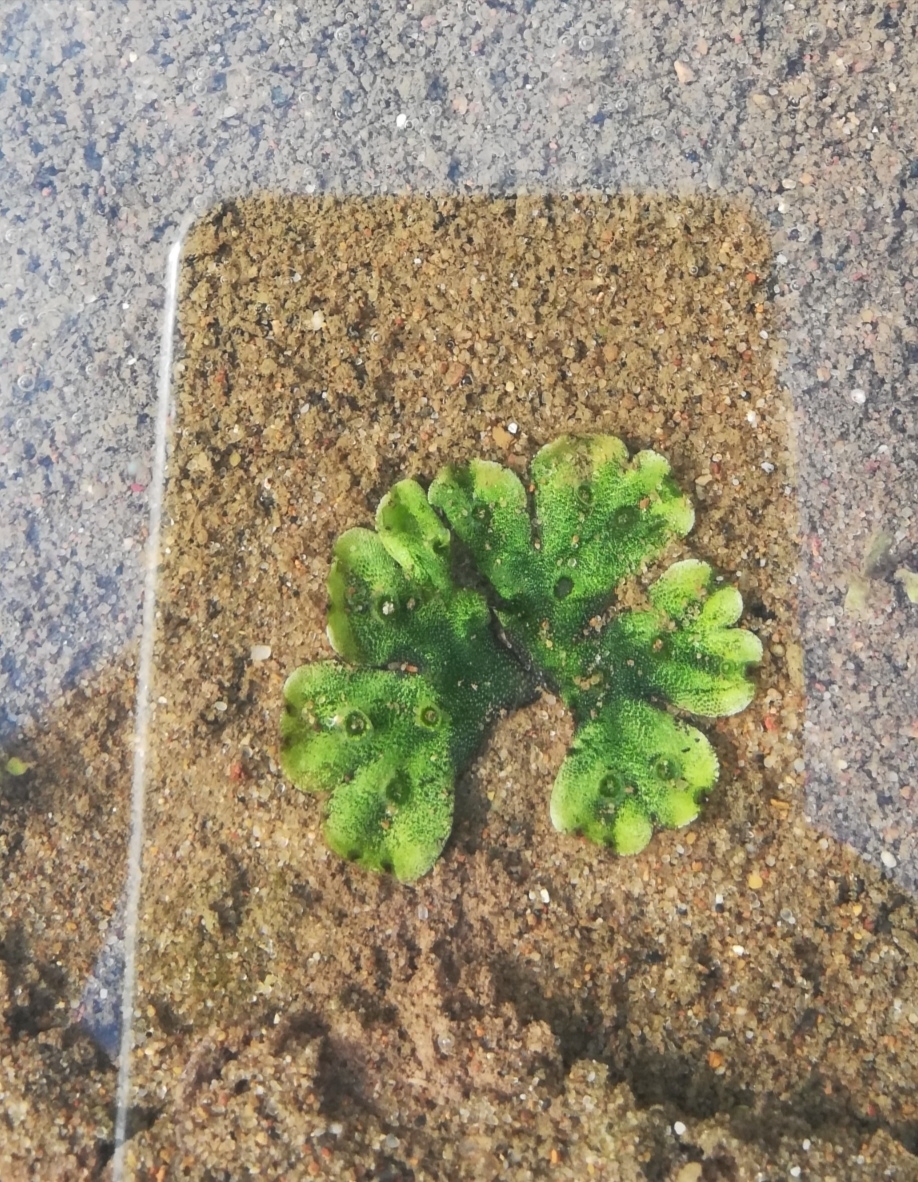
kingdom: Plantae
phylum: Marchantiophyta
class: Marchantiopsida
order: Marchantiales
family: Marchantiaceae
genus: Marchantia
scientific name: Marchantia polymorpha
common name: Common liverwort
